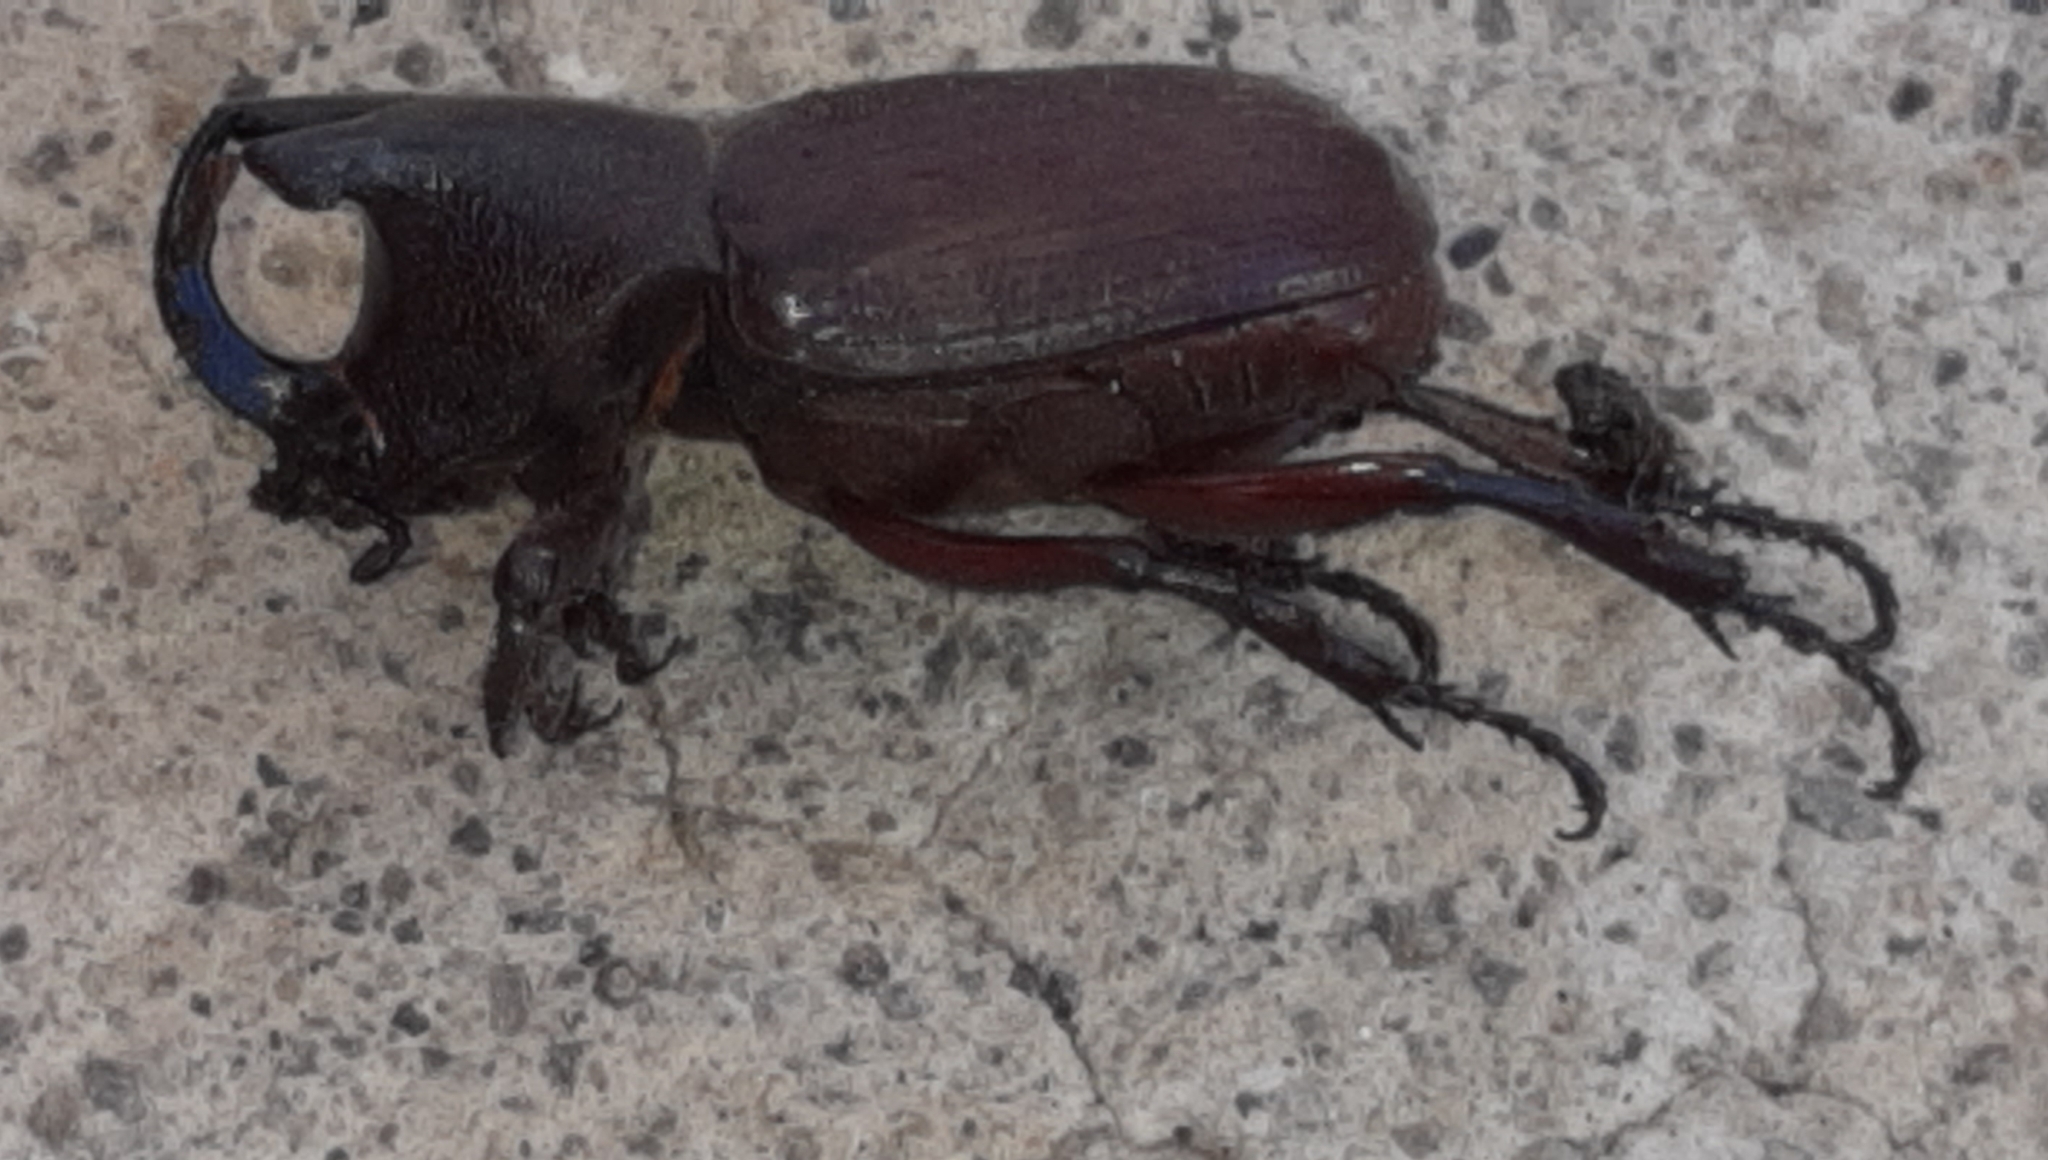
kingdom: Animalia
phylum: Arthropoda
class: Insecta
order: Coleoptera
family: Scarabaeidae
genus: Coelosis
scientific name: Coelosis biloba
